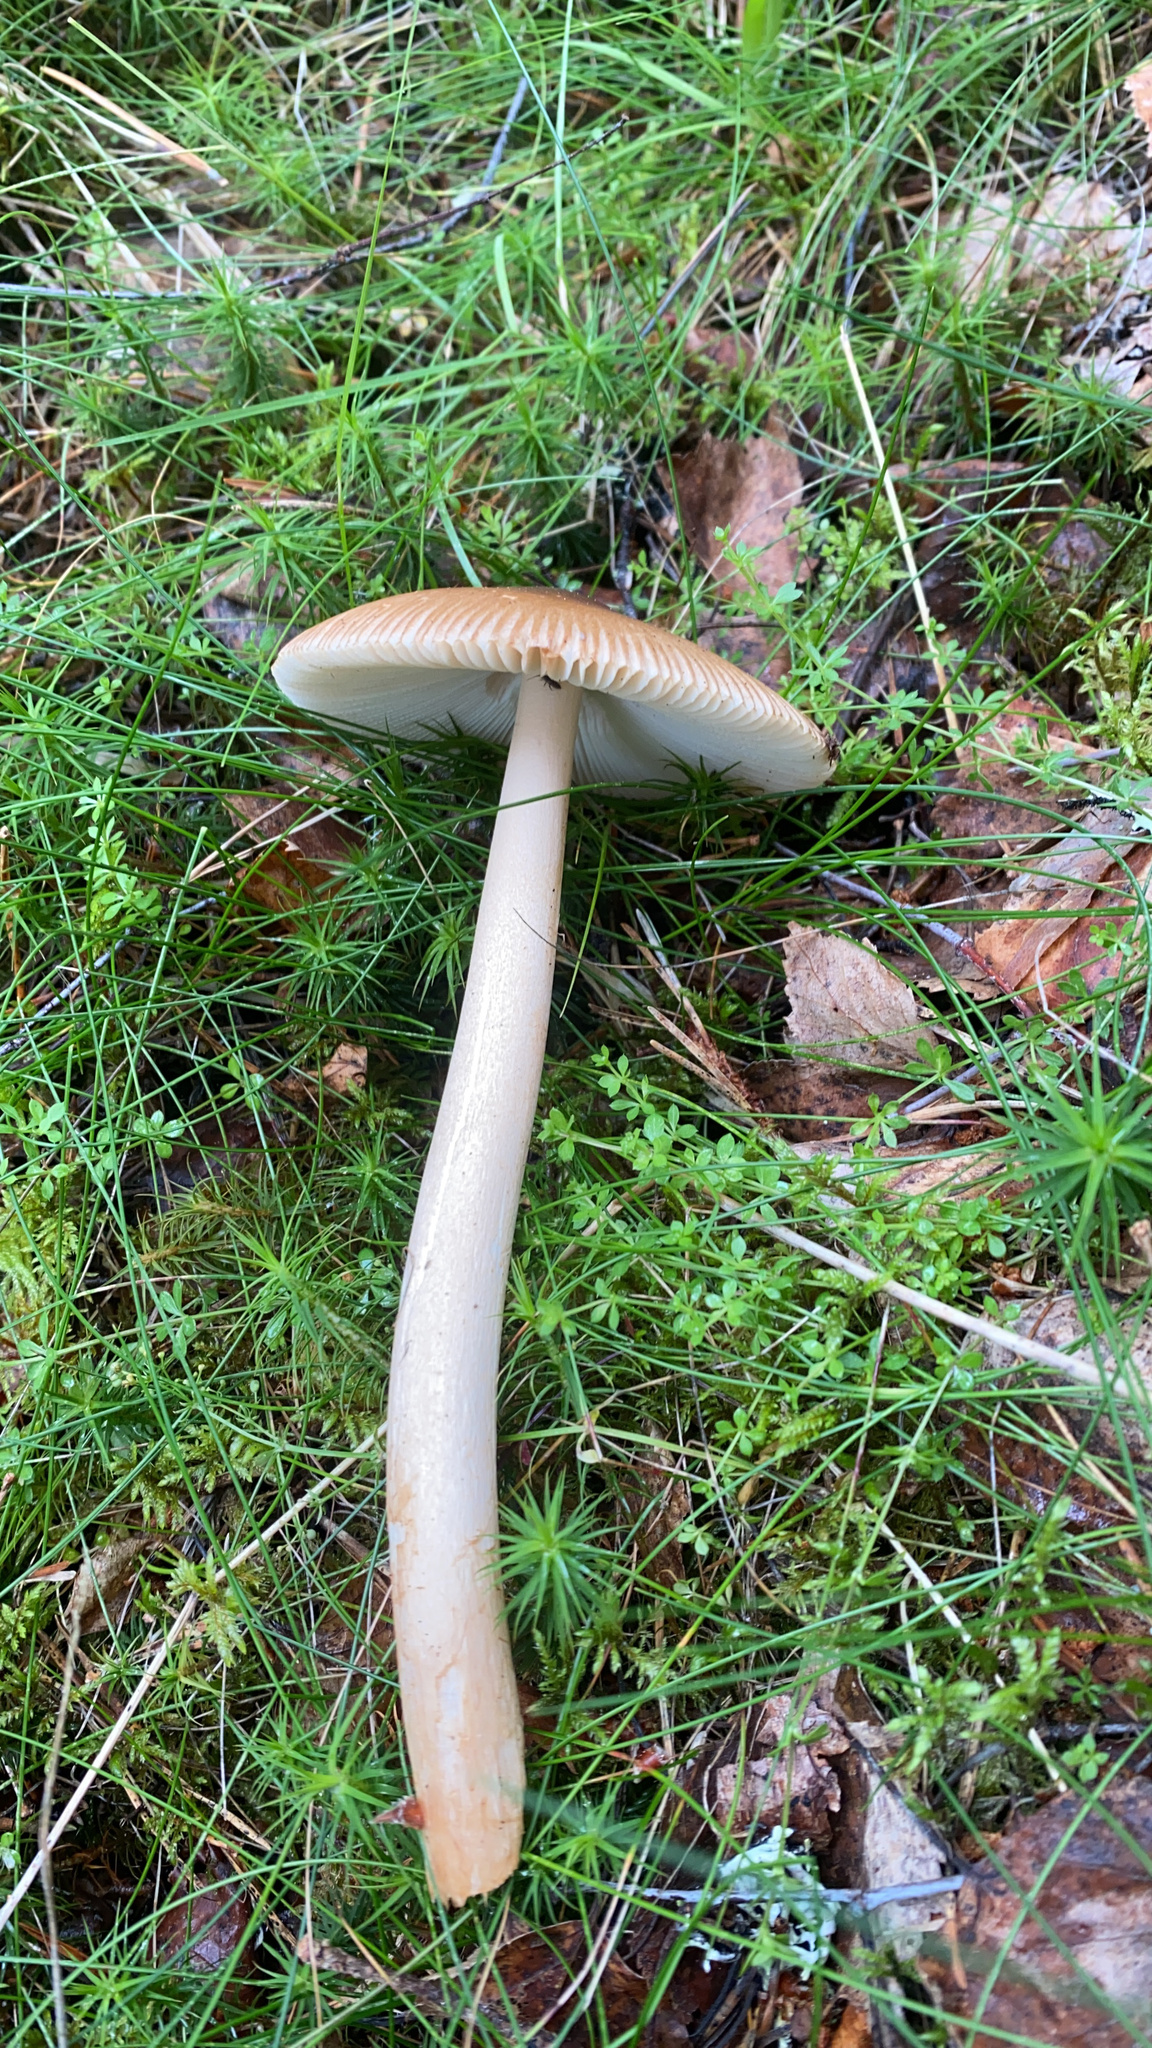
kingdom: Fungi
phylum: Basidiomycota
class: Agaricomycetes
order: Agaricales
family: Amanitaceae
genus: Amanita
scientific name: Amanita fulva
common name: Tawny grisette
